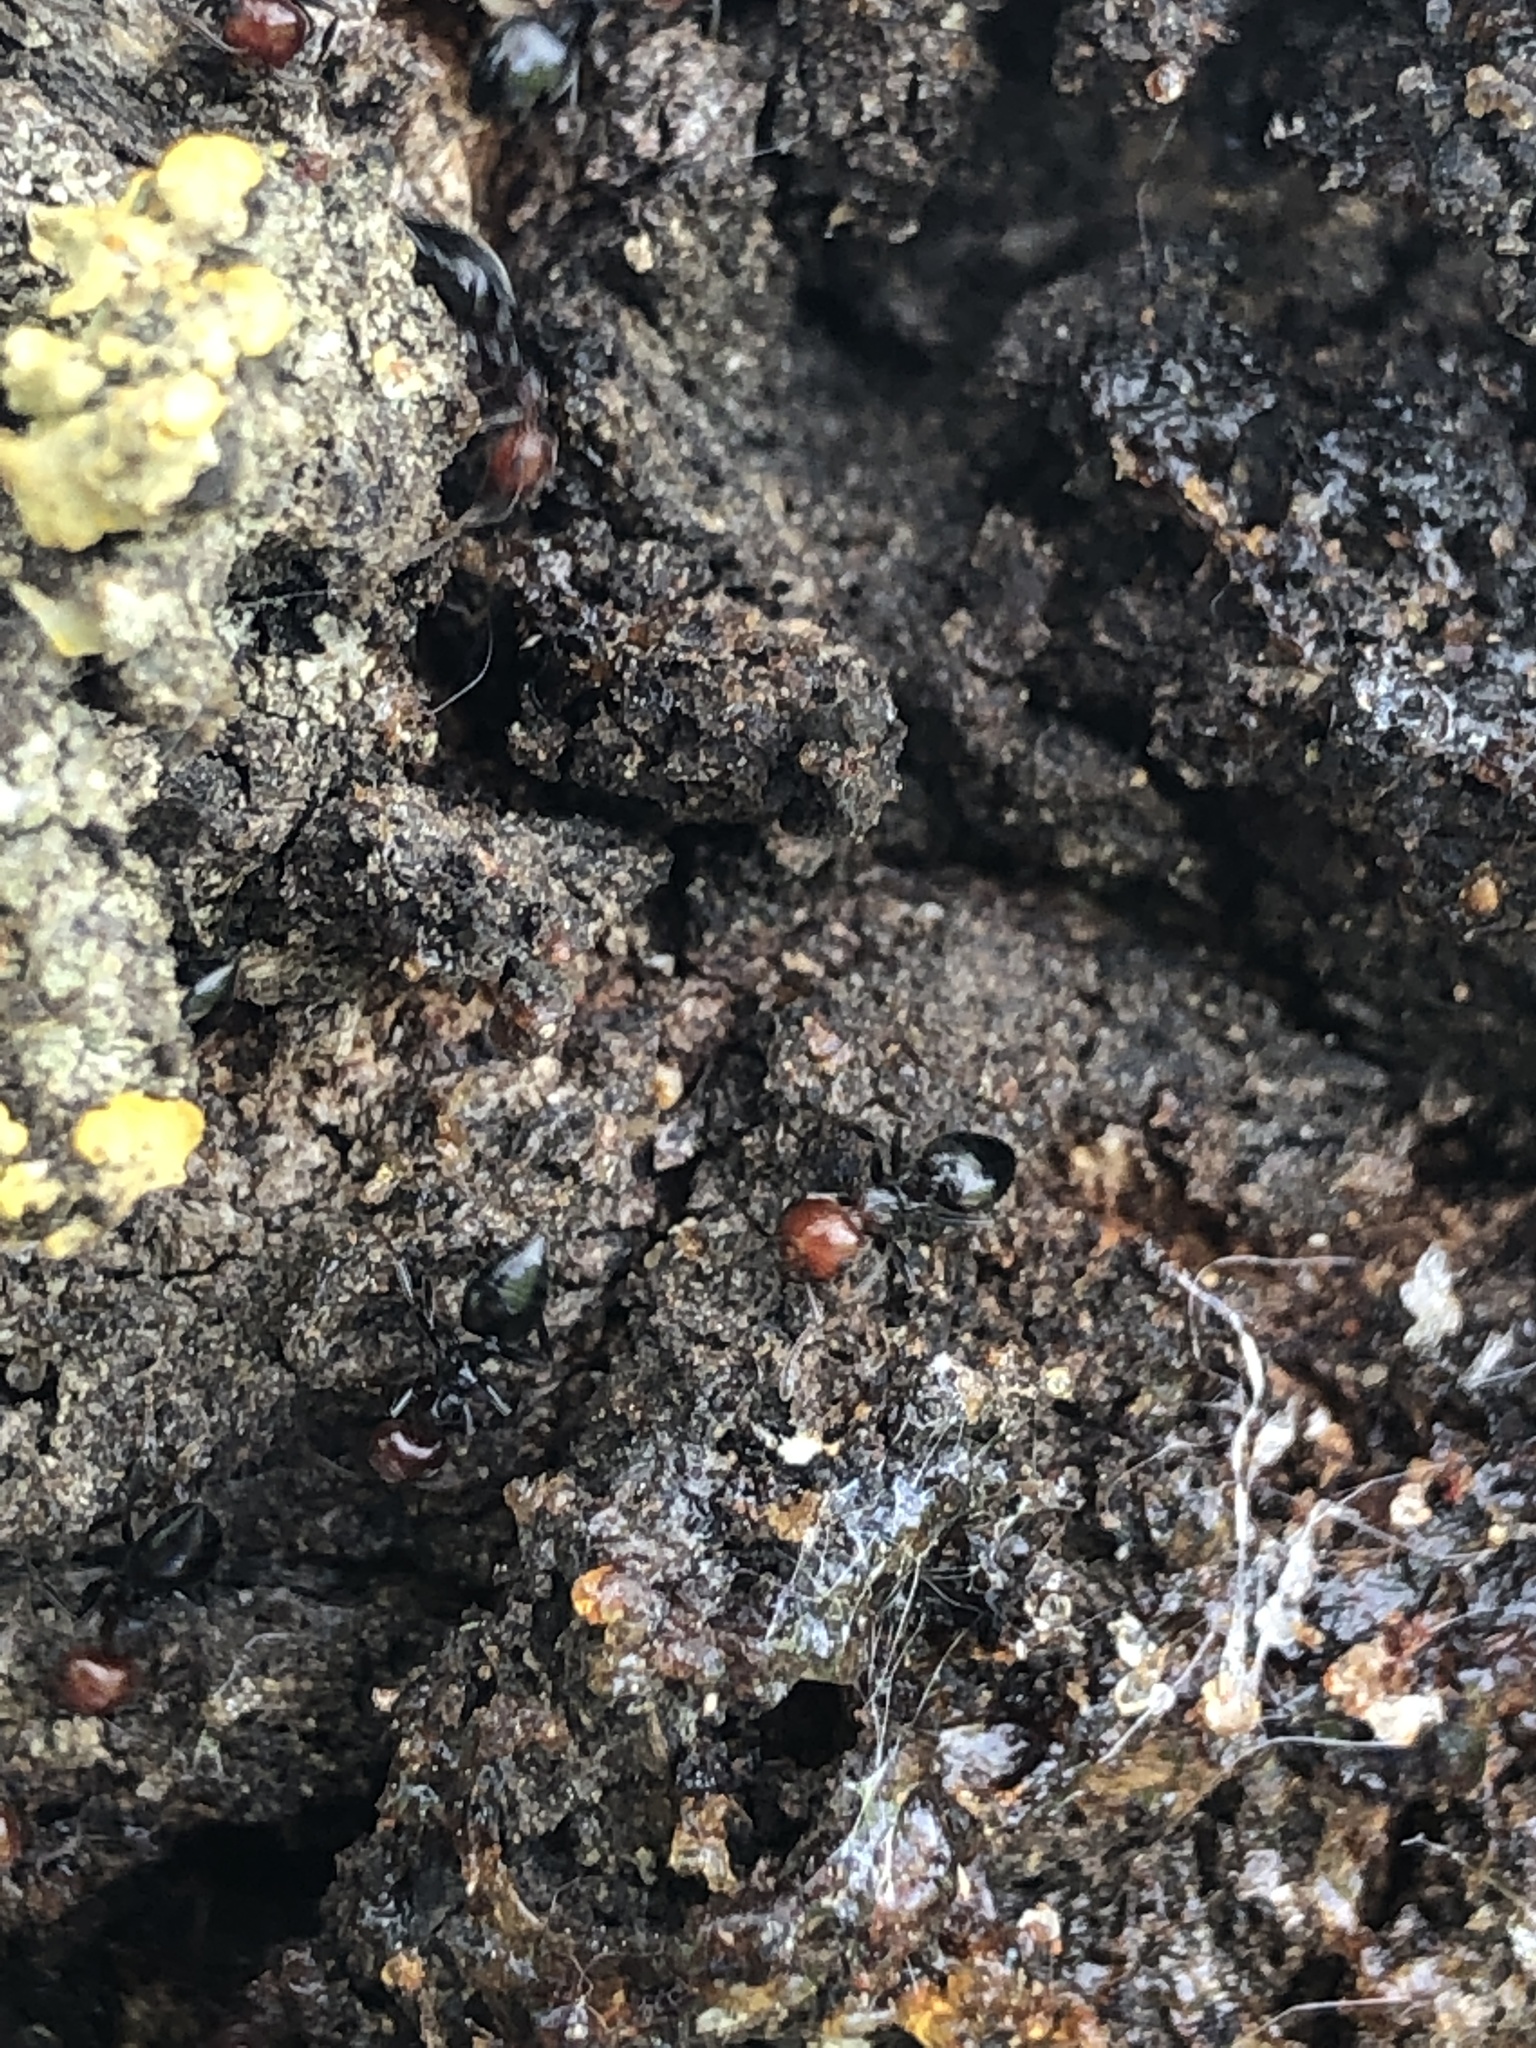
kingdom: Animalia
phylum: Arthropoda
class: Insecta
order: Hymenoptera
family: Formicidae
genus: Crematogaster
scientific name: Crematogaster scutellaris
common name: Fourmi du liège
